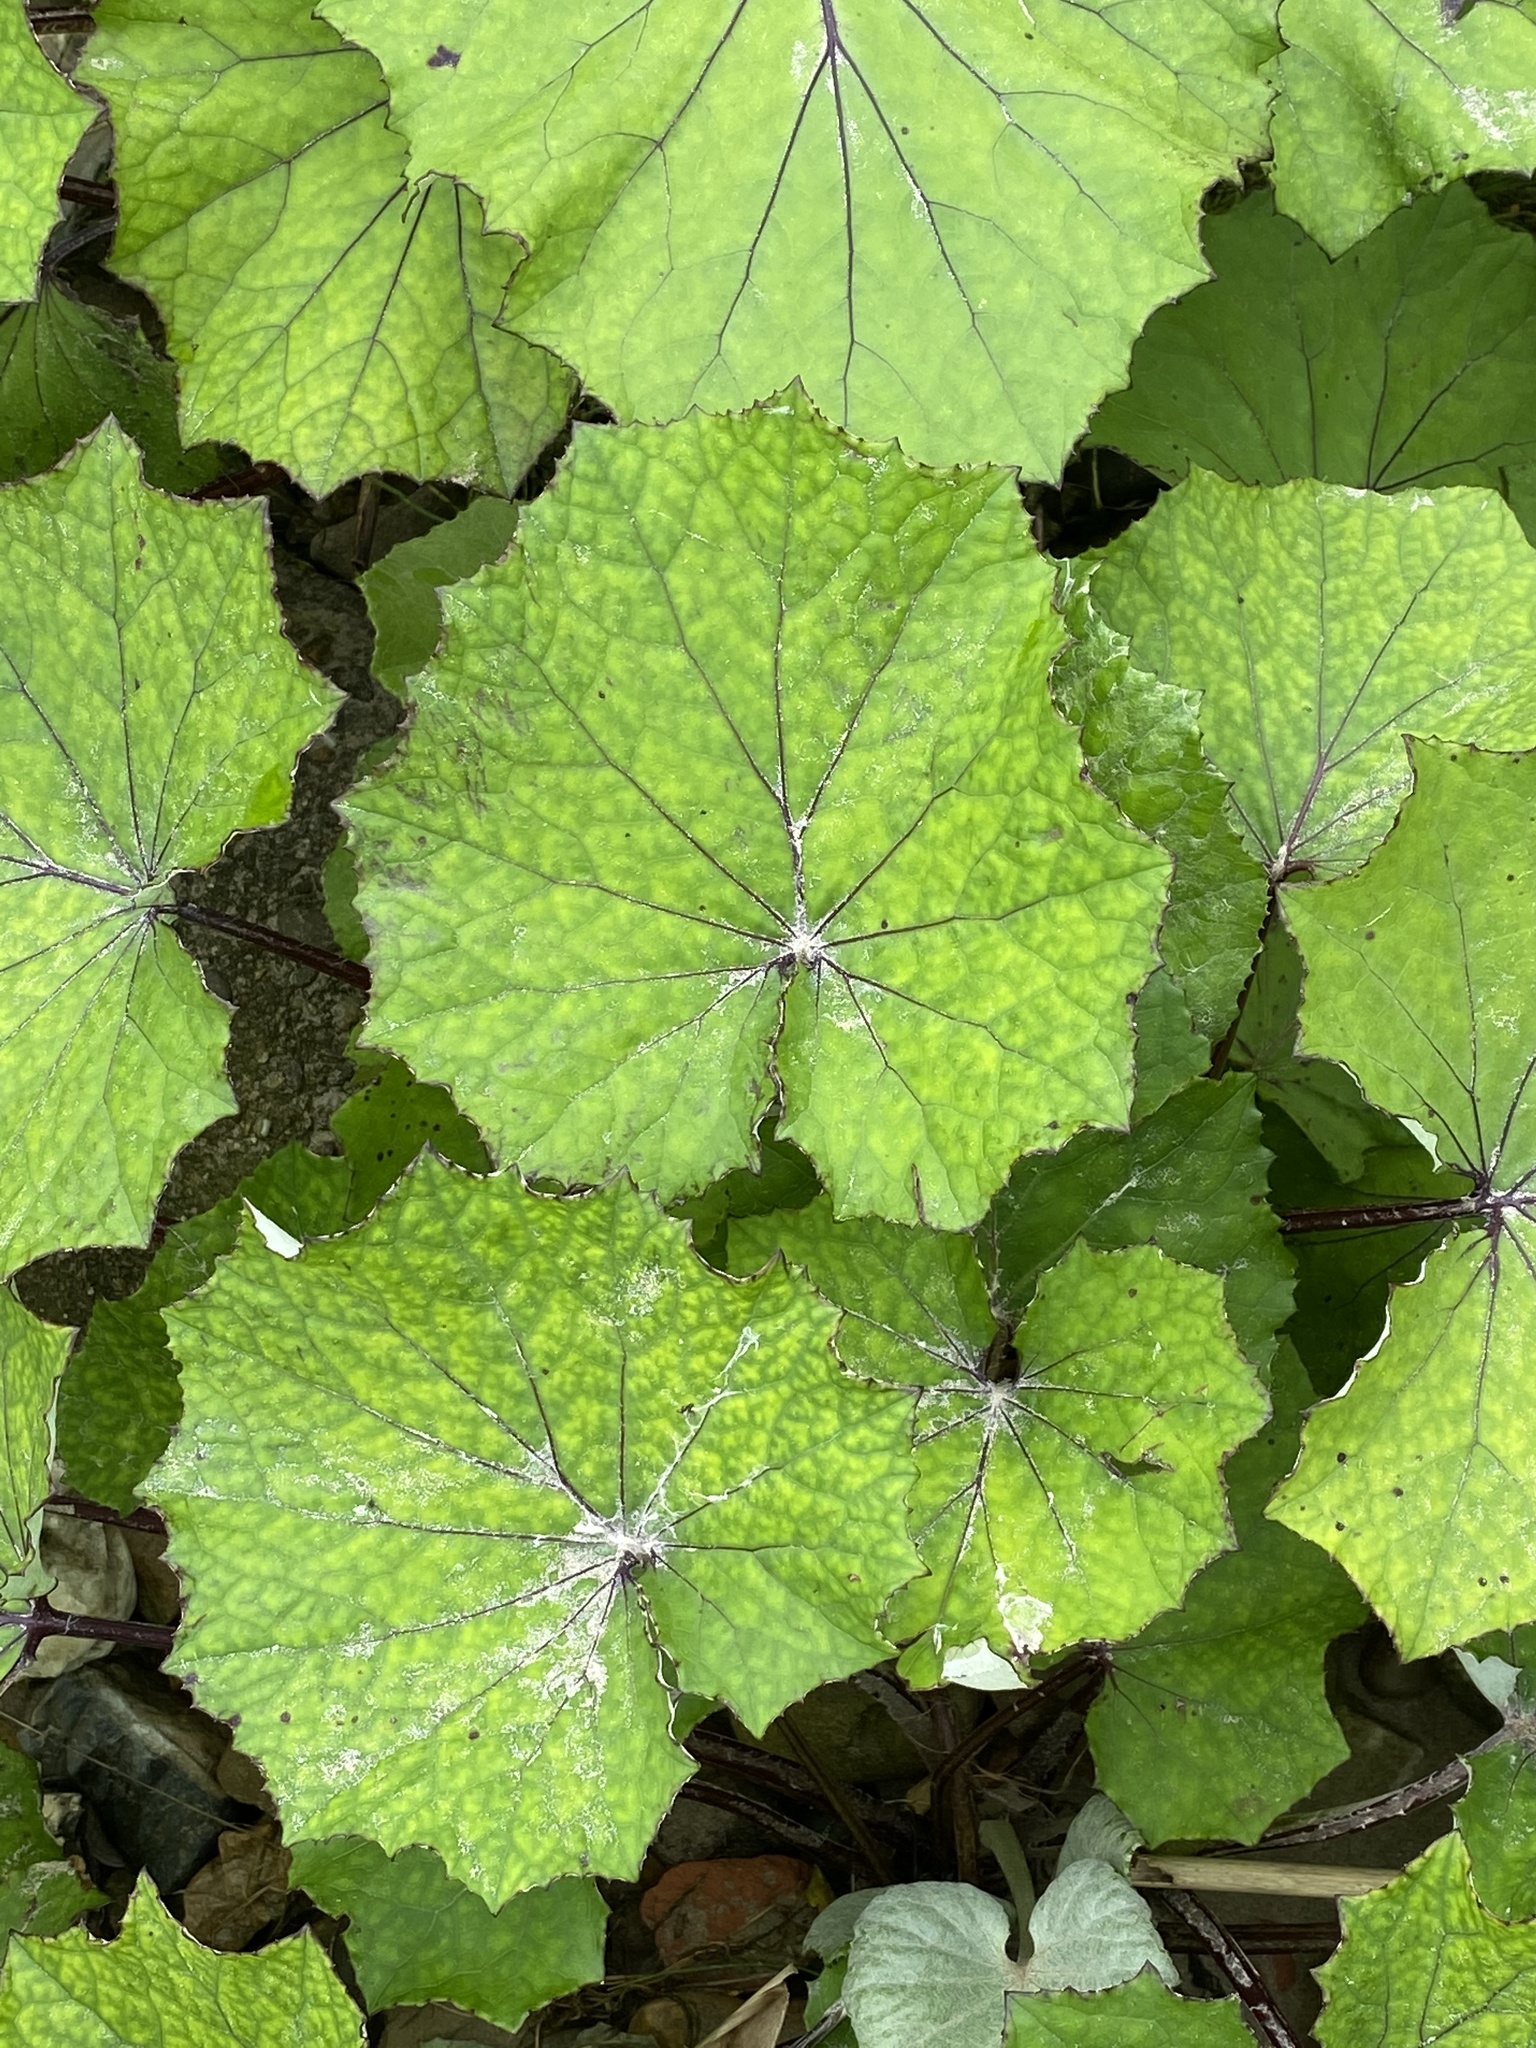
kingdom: Plantae
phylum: Tracheophyta
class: Magnoliopsida
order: Asterales
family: Asteraceae
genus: Tussilago
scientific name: Tussilago farfara
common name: Coltsfoot
